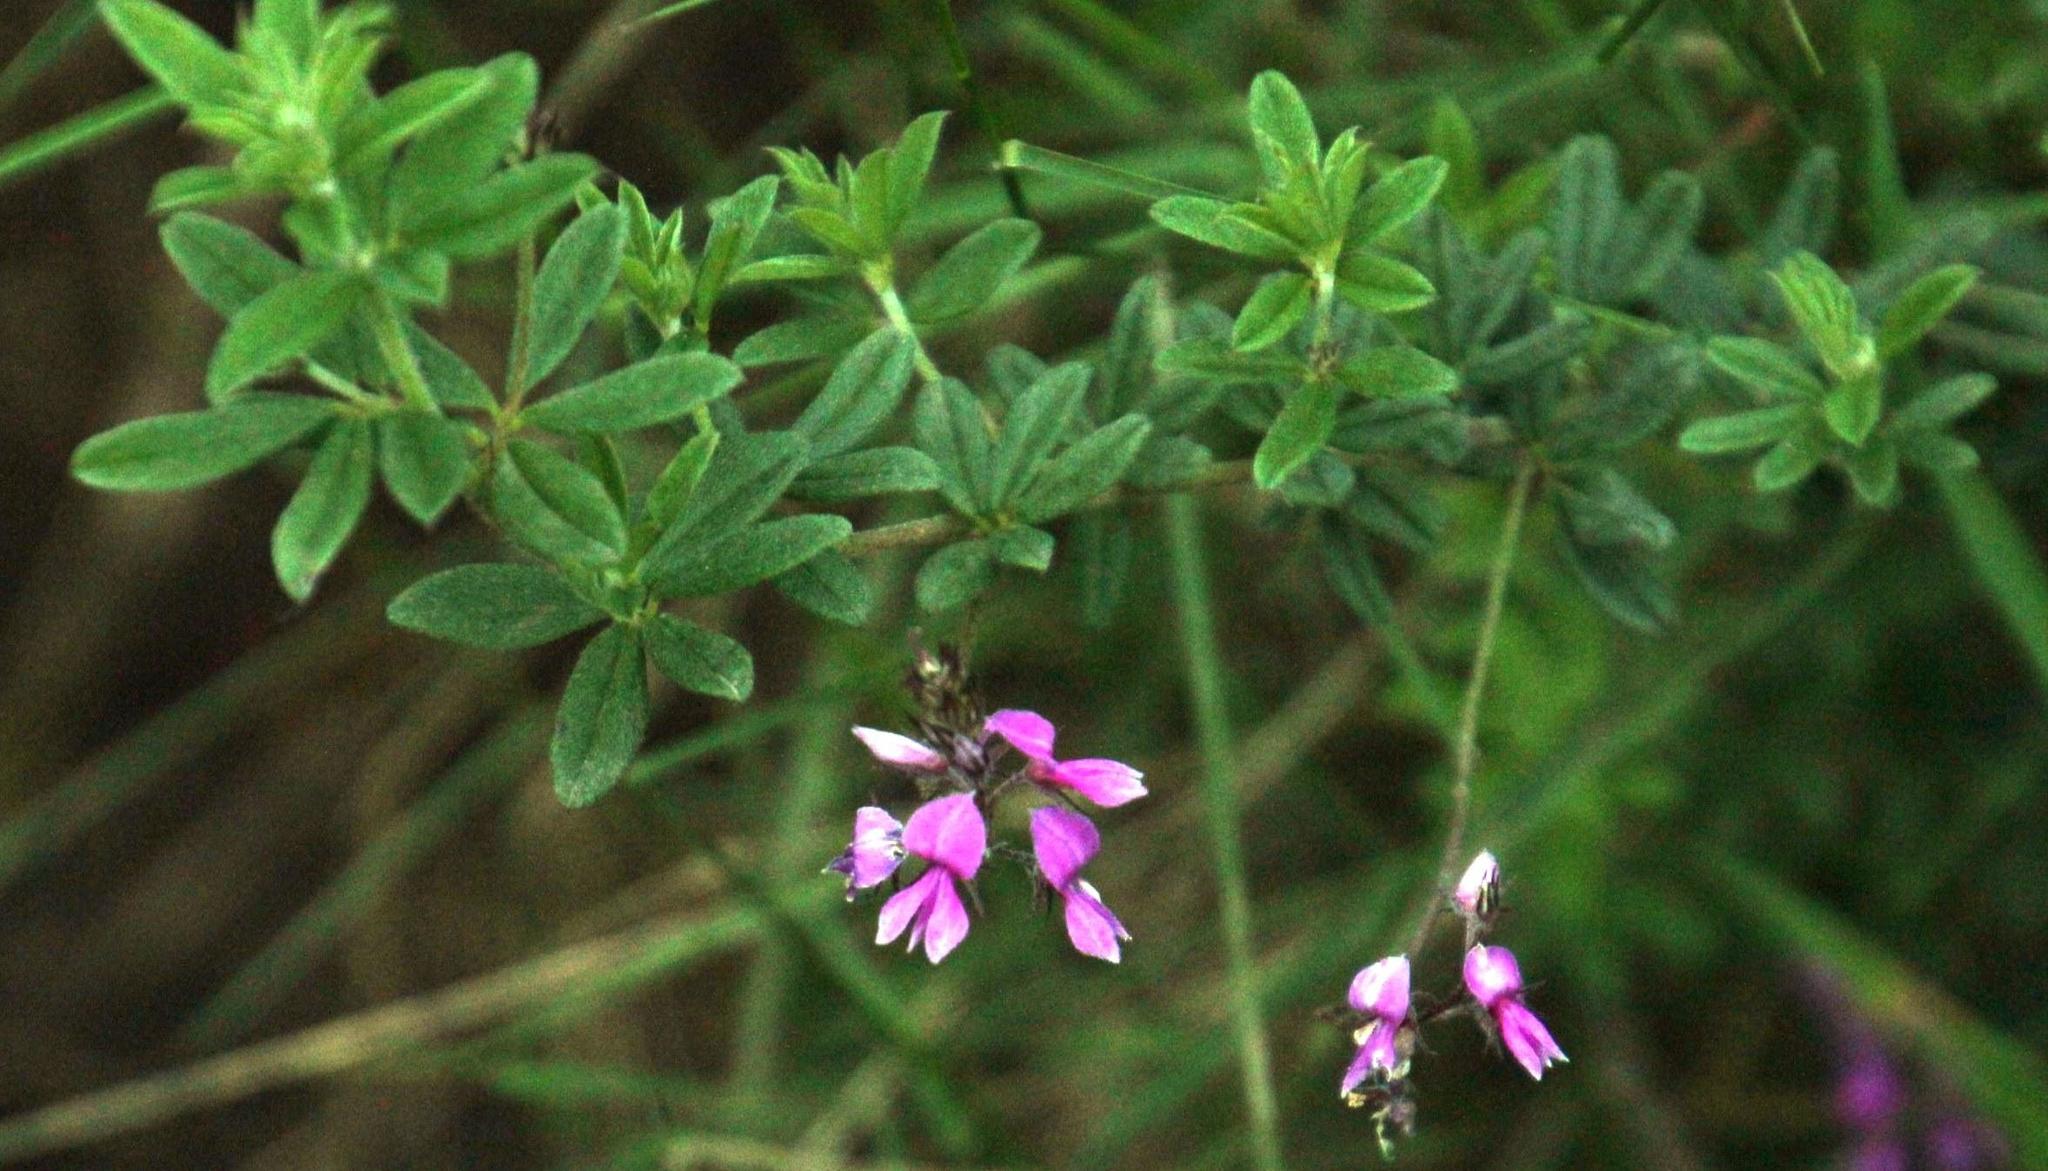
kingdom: Plantae
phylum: Tracheophyta
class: Magnoliopsida
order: Fabales
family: Fabaceae
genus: Indigofera
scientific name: Indigofera filiformis
